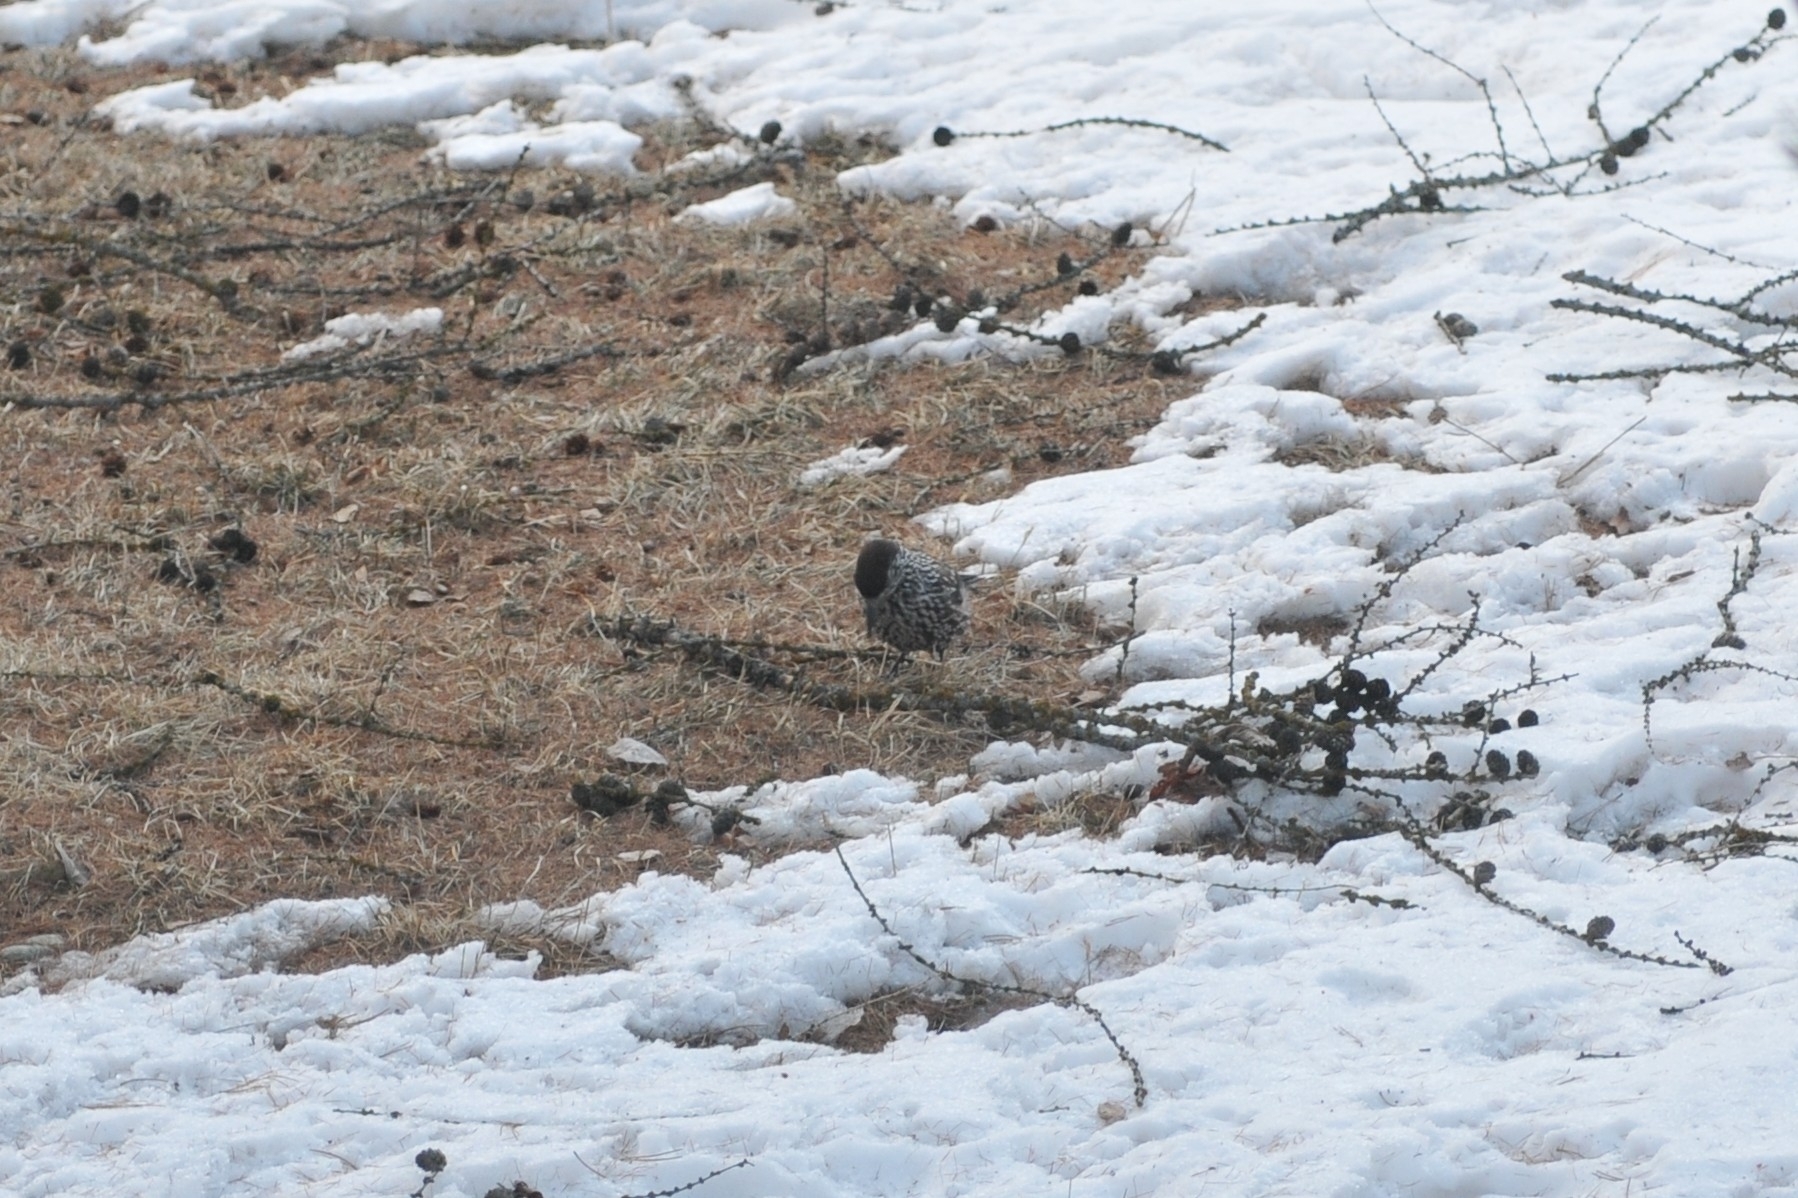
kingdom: Animalia
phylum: Chordata
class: Aves
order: Passeriformes
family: Corvidae
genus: Nucifraga
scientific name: Nucifraga caryocatactes
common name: Spotted nutcracker
